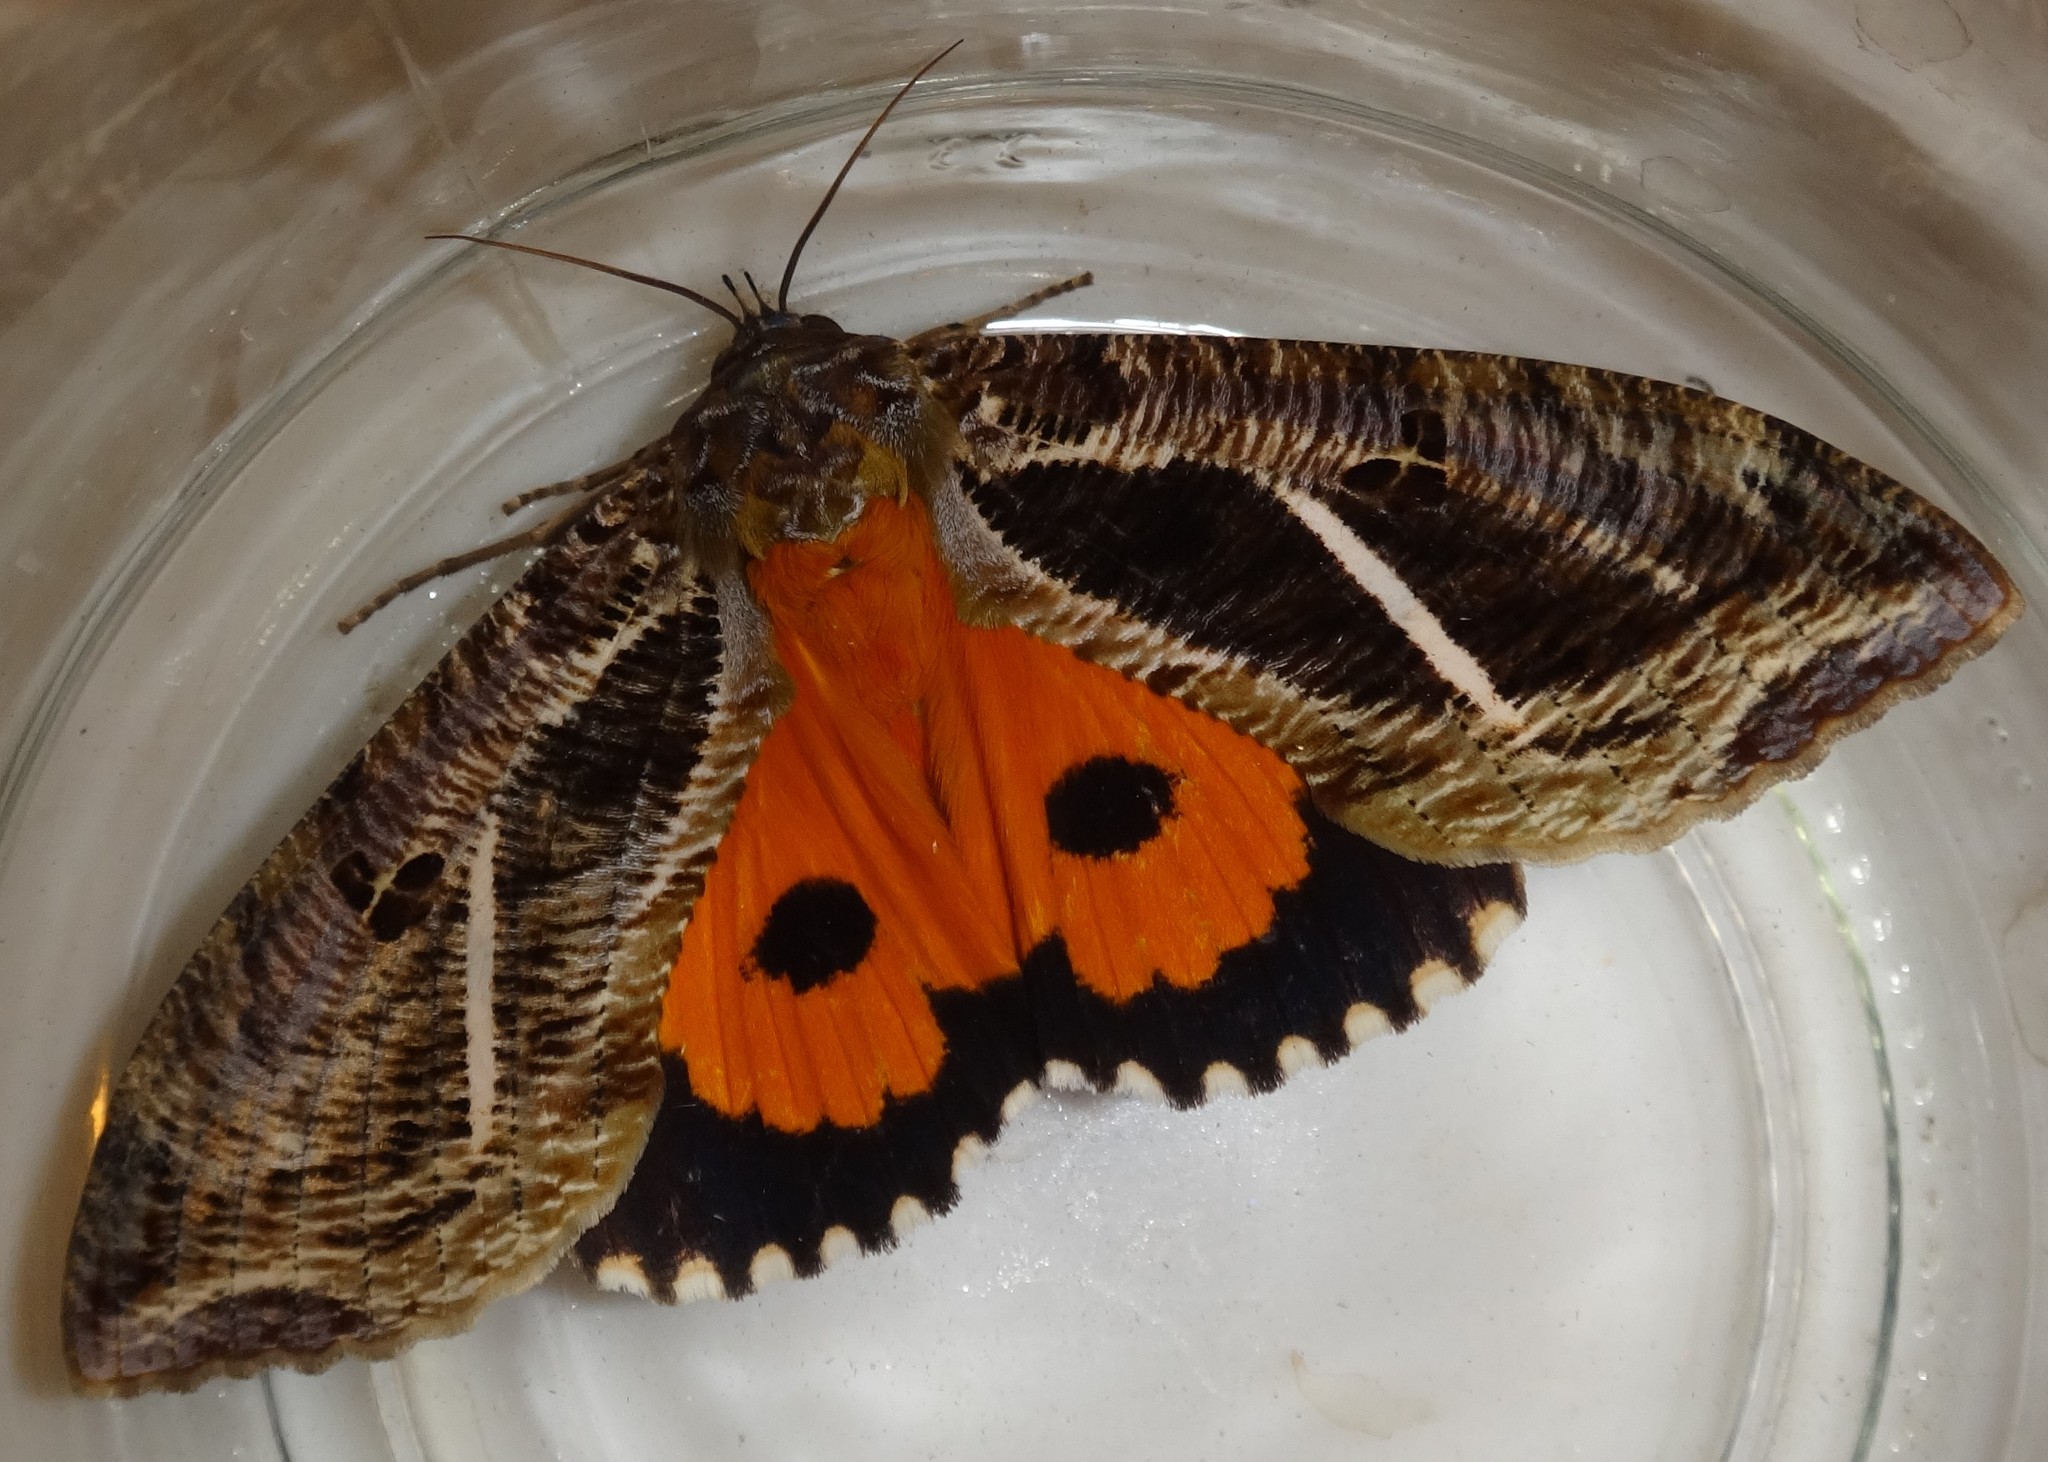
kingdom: Animalia
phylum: Arthropoda
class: Insecta
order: Lepidoptera
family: Erebidae
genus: Eudocima
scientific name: Eudocima apta
